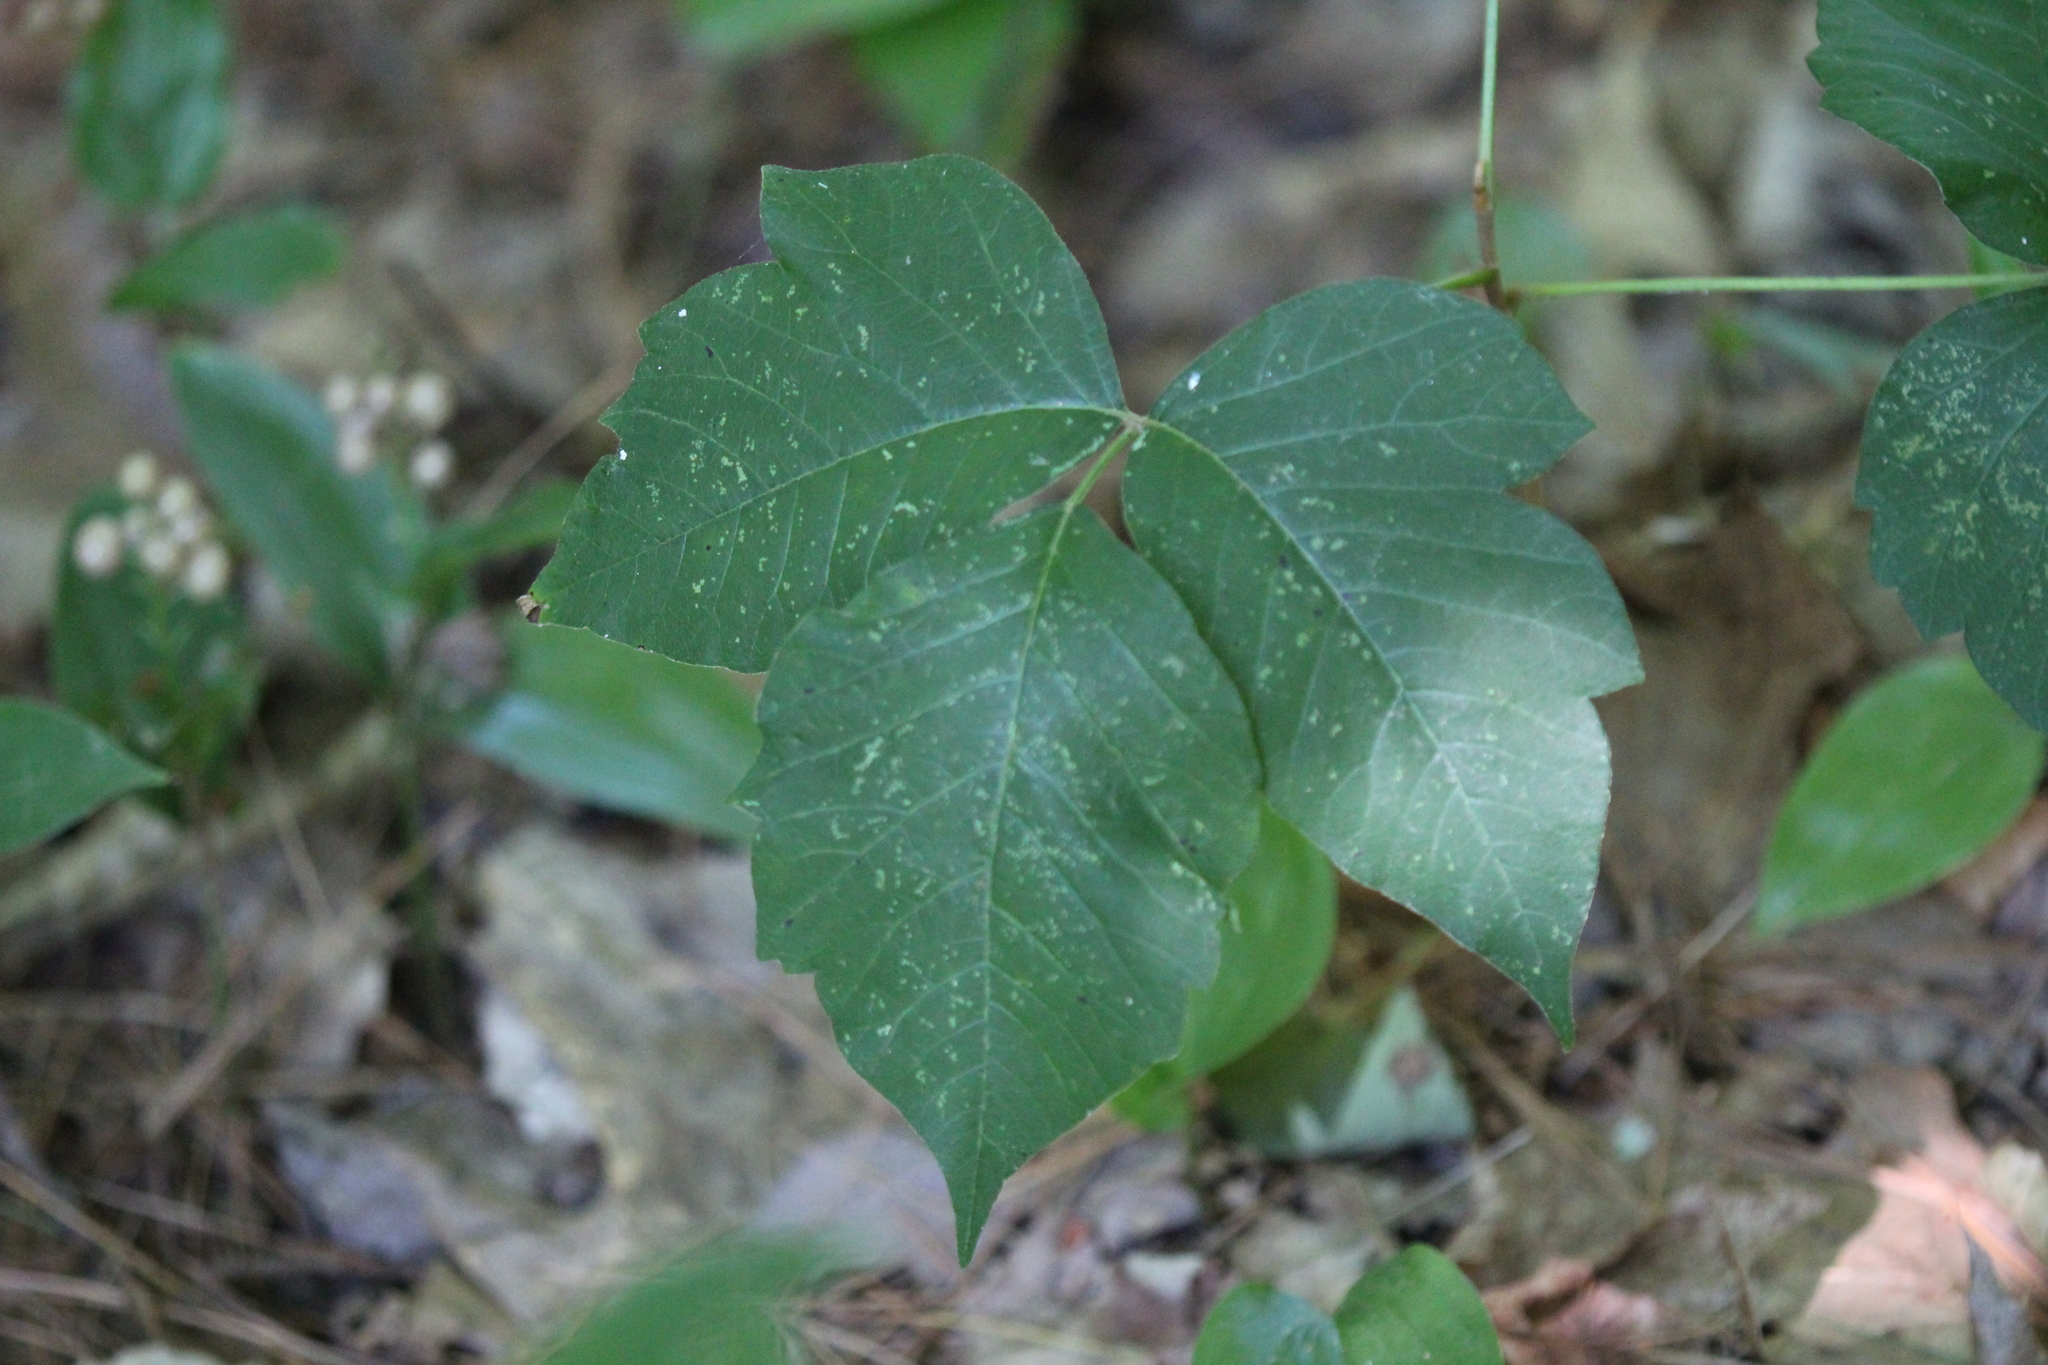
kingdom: Plantae
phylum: Tracheophyta
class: Magnoliopsida
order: Sapindales
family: Anacardiaceae
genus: Toxicodendron
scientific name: Toxicodendron radicans
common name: Poison ivy
